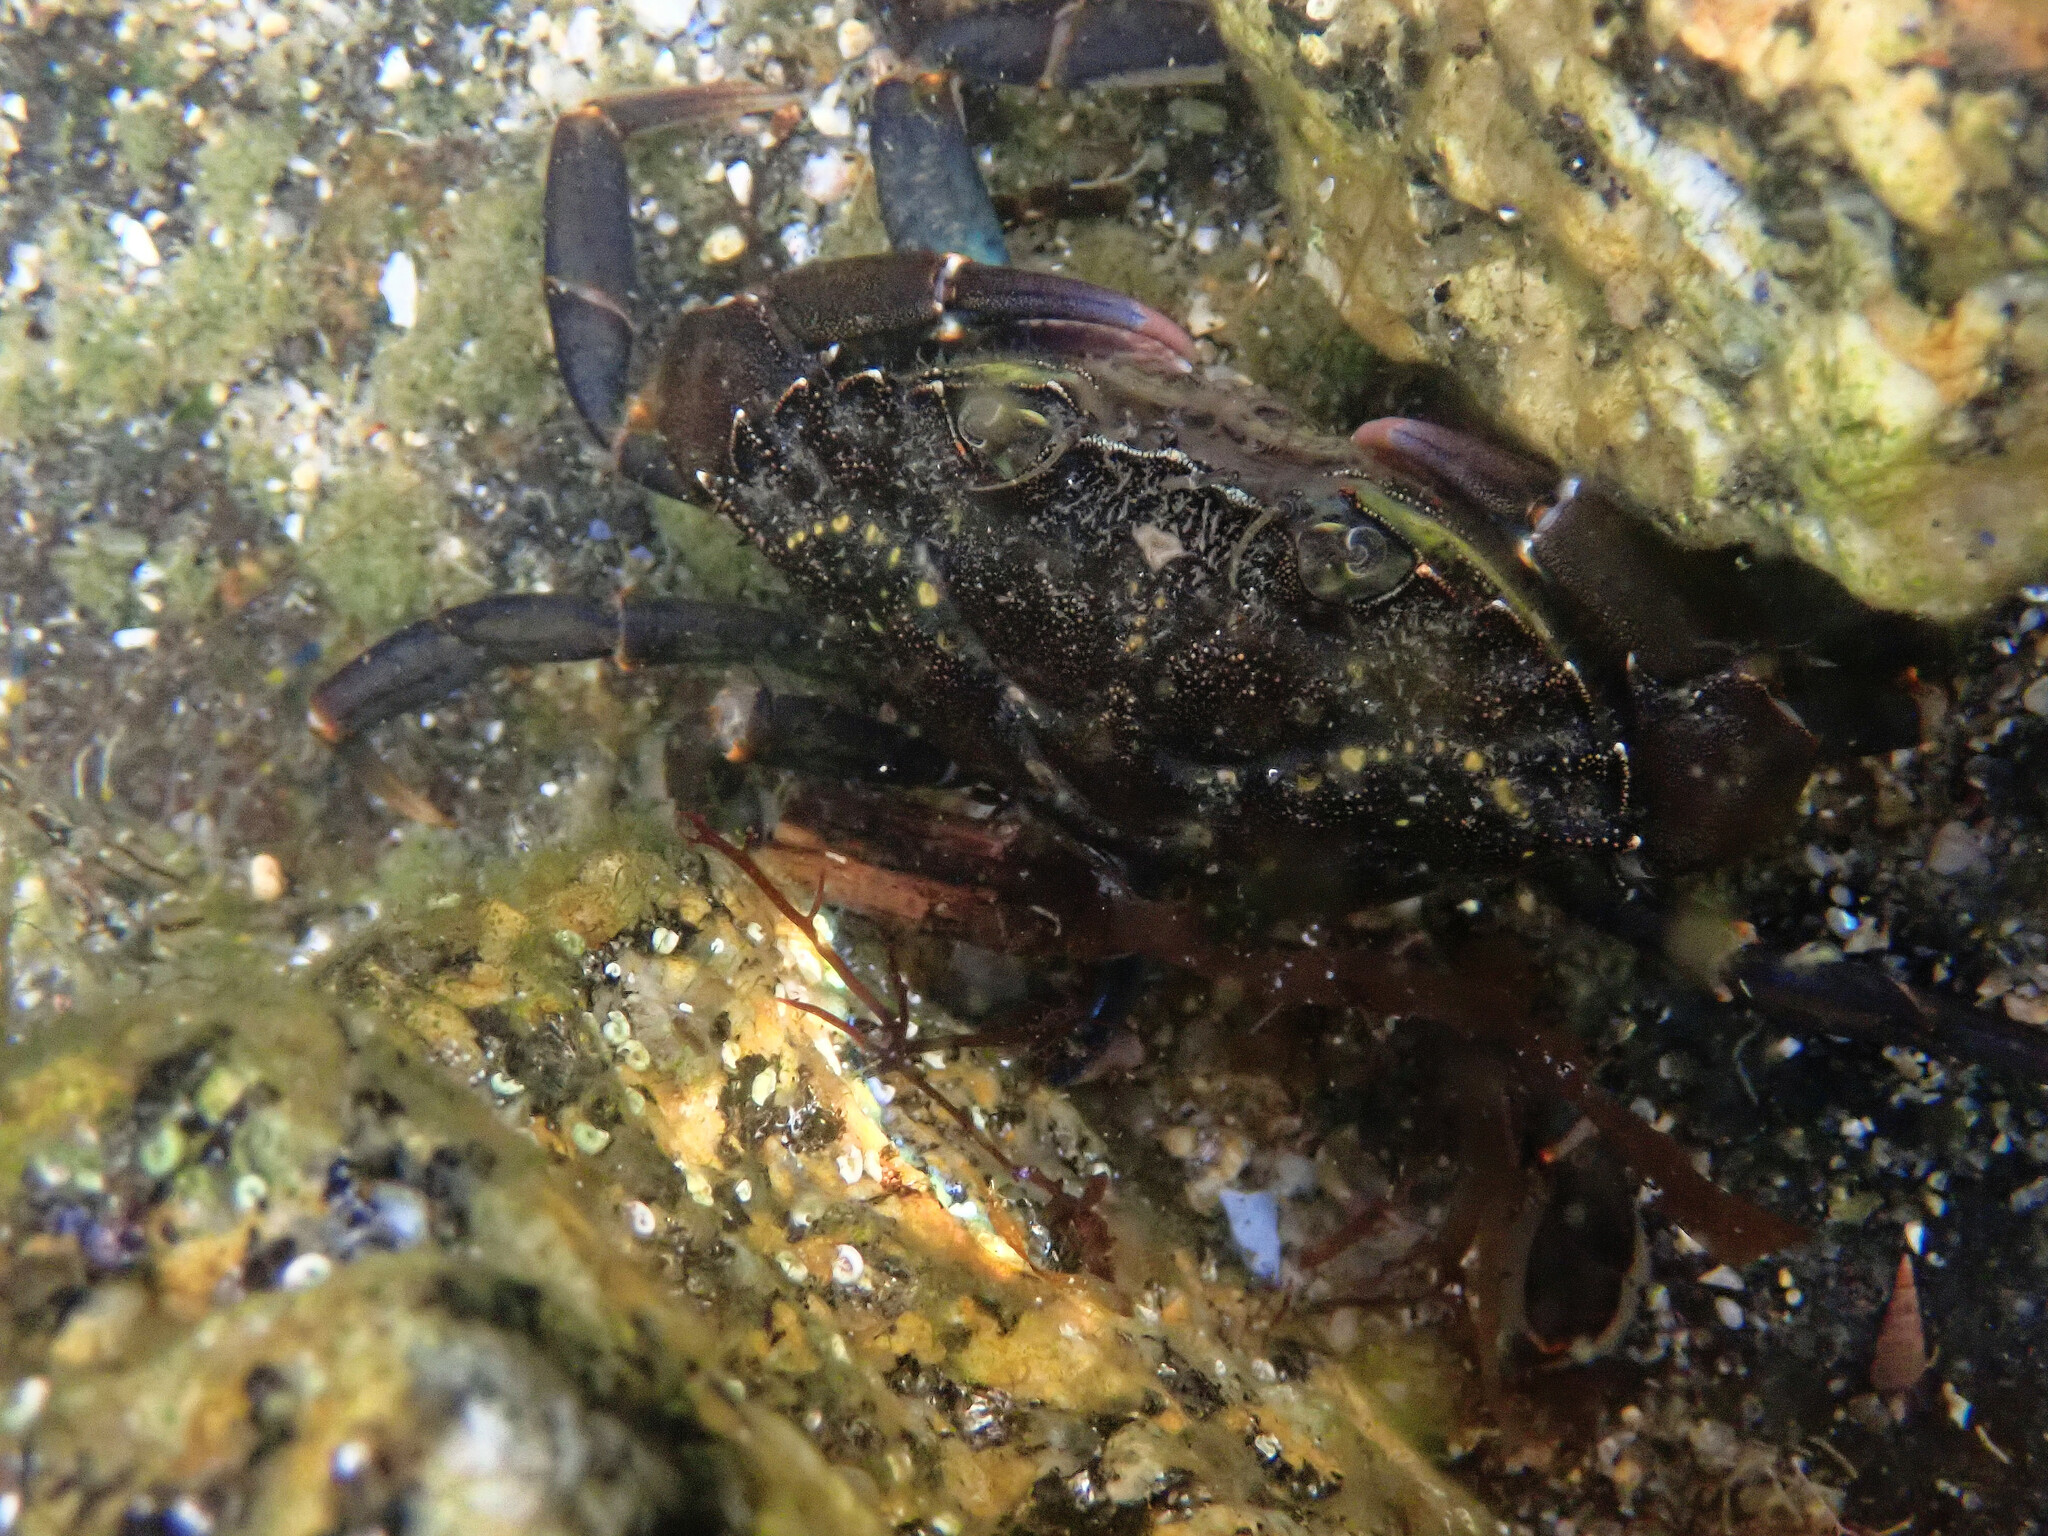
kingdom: Animalia
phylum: Arthropoda
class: Malacostraca
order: Decapoda
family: Carcinidae
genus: Carcinus
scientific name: Carcinus maenas
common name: European green crab
